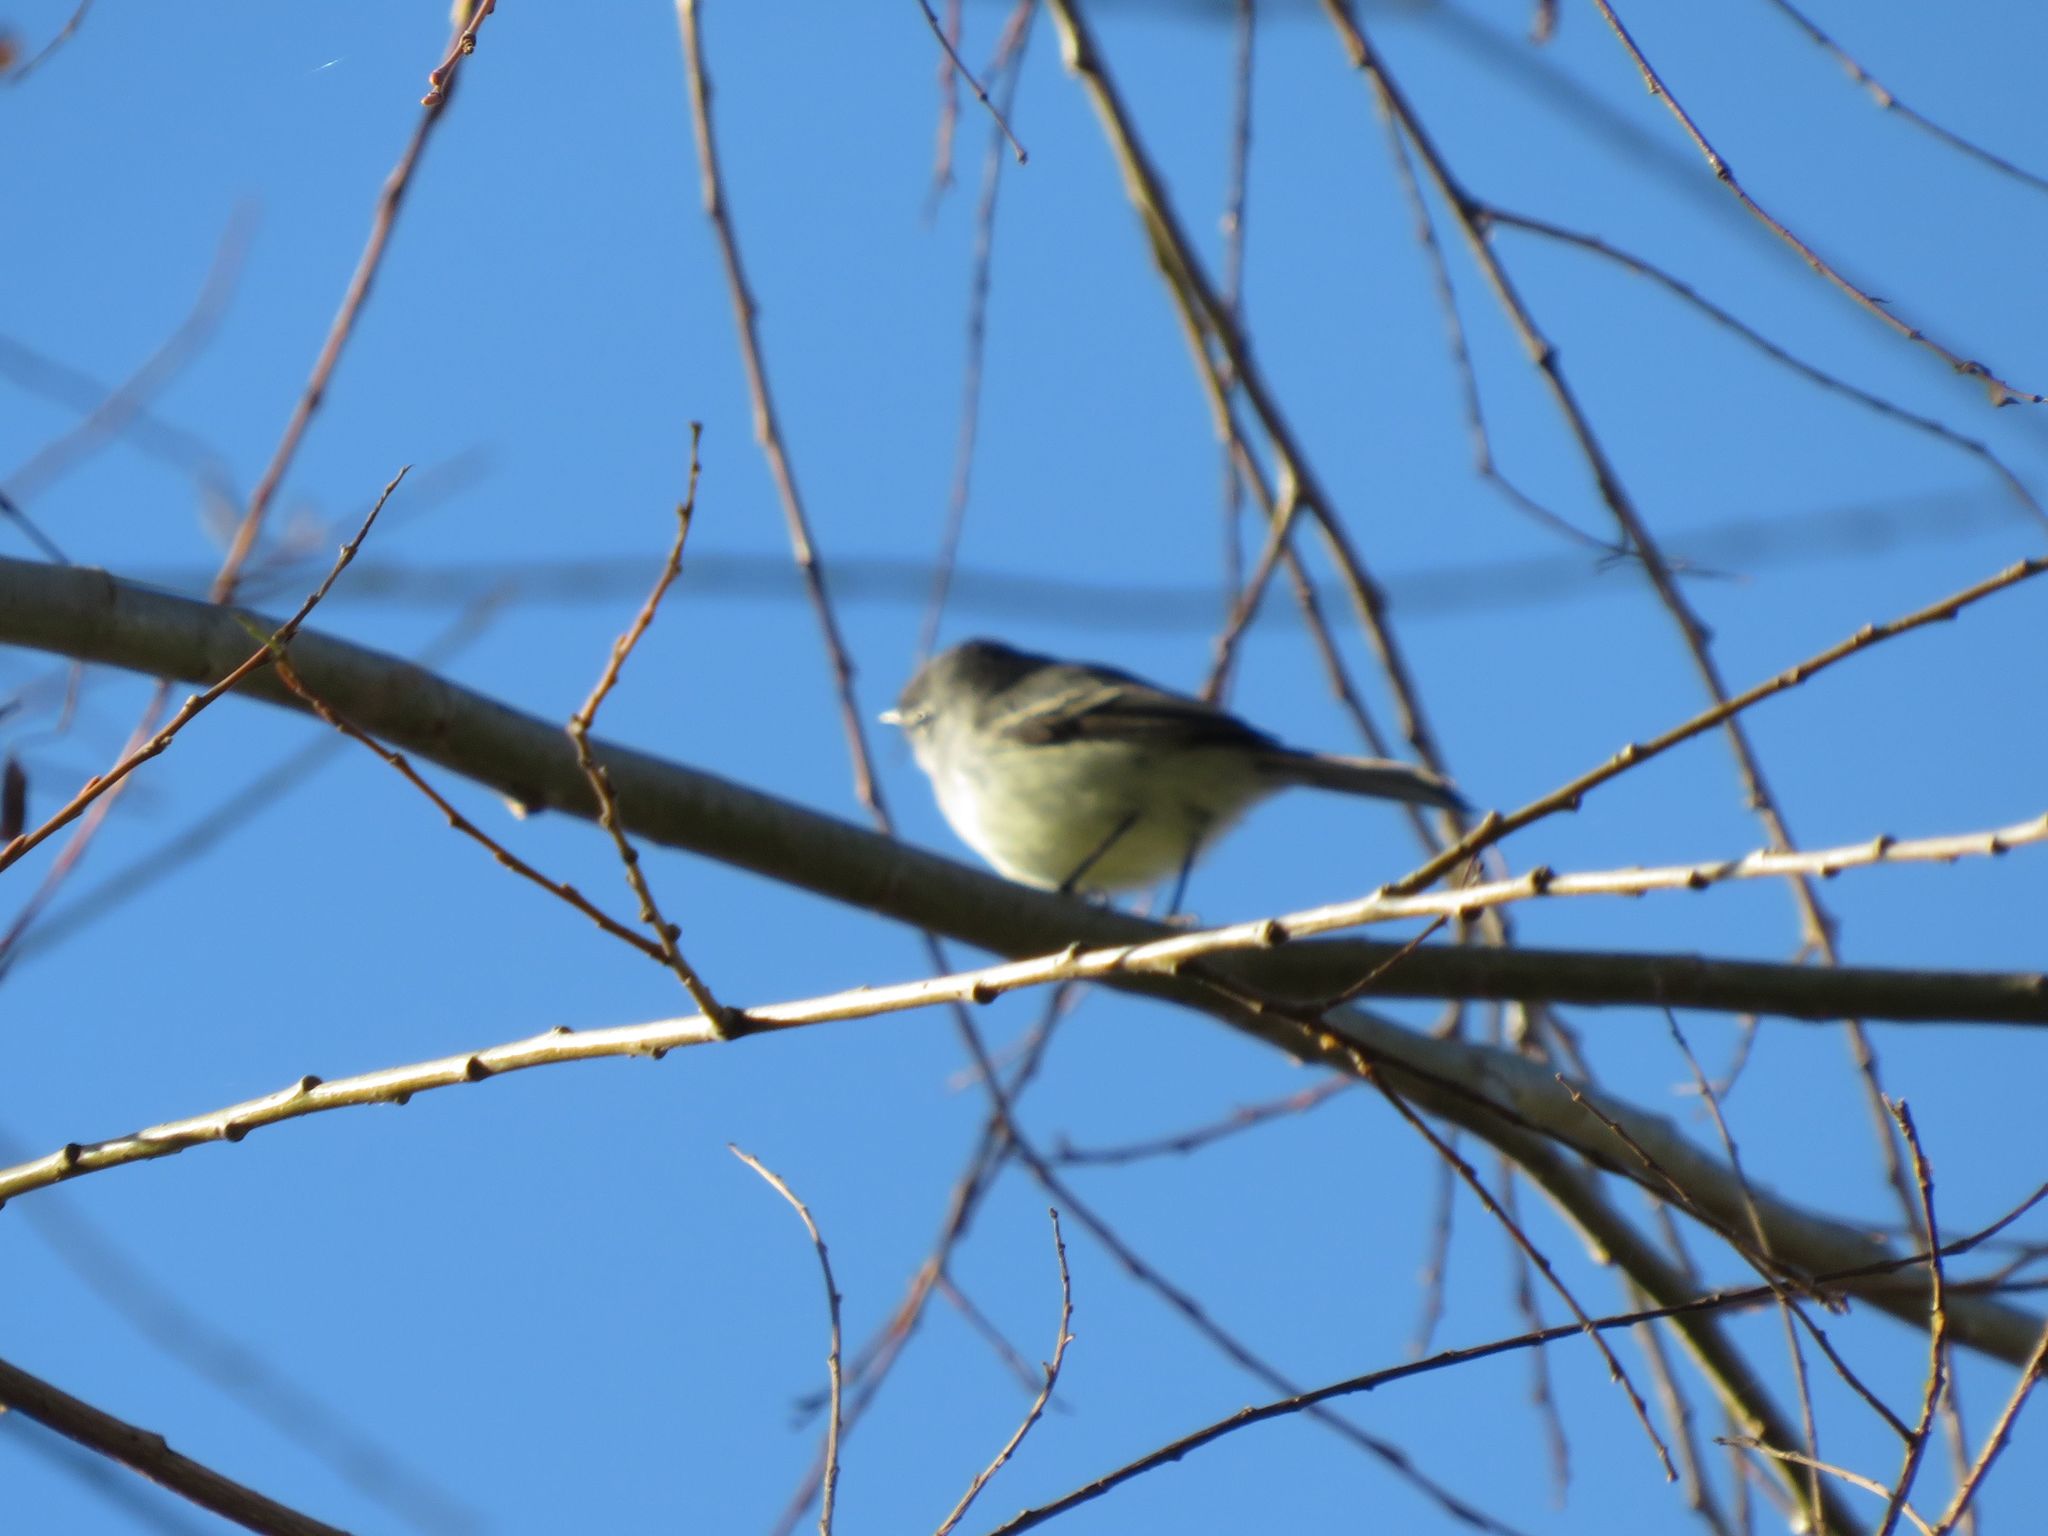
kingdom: Animalia
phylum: Chordata
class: Aves
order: Passeriformes
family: Tyrannidae
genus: Serpophaga
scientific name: Serpophaga subcristata
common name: White-crested tyrannulet
